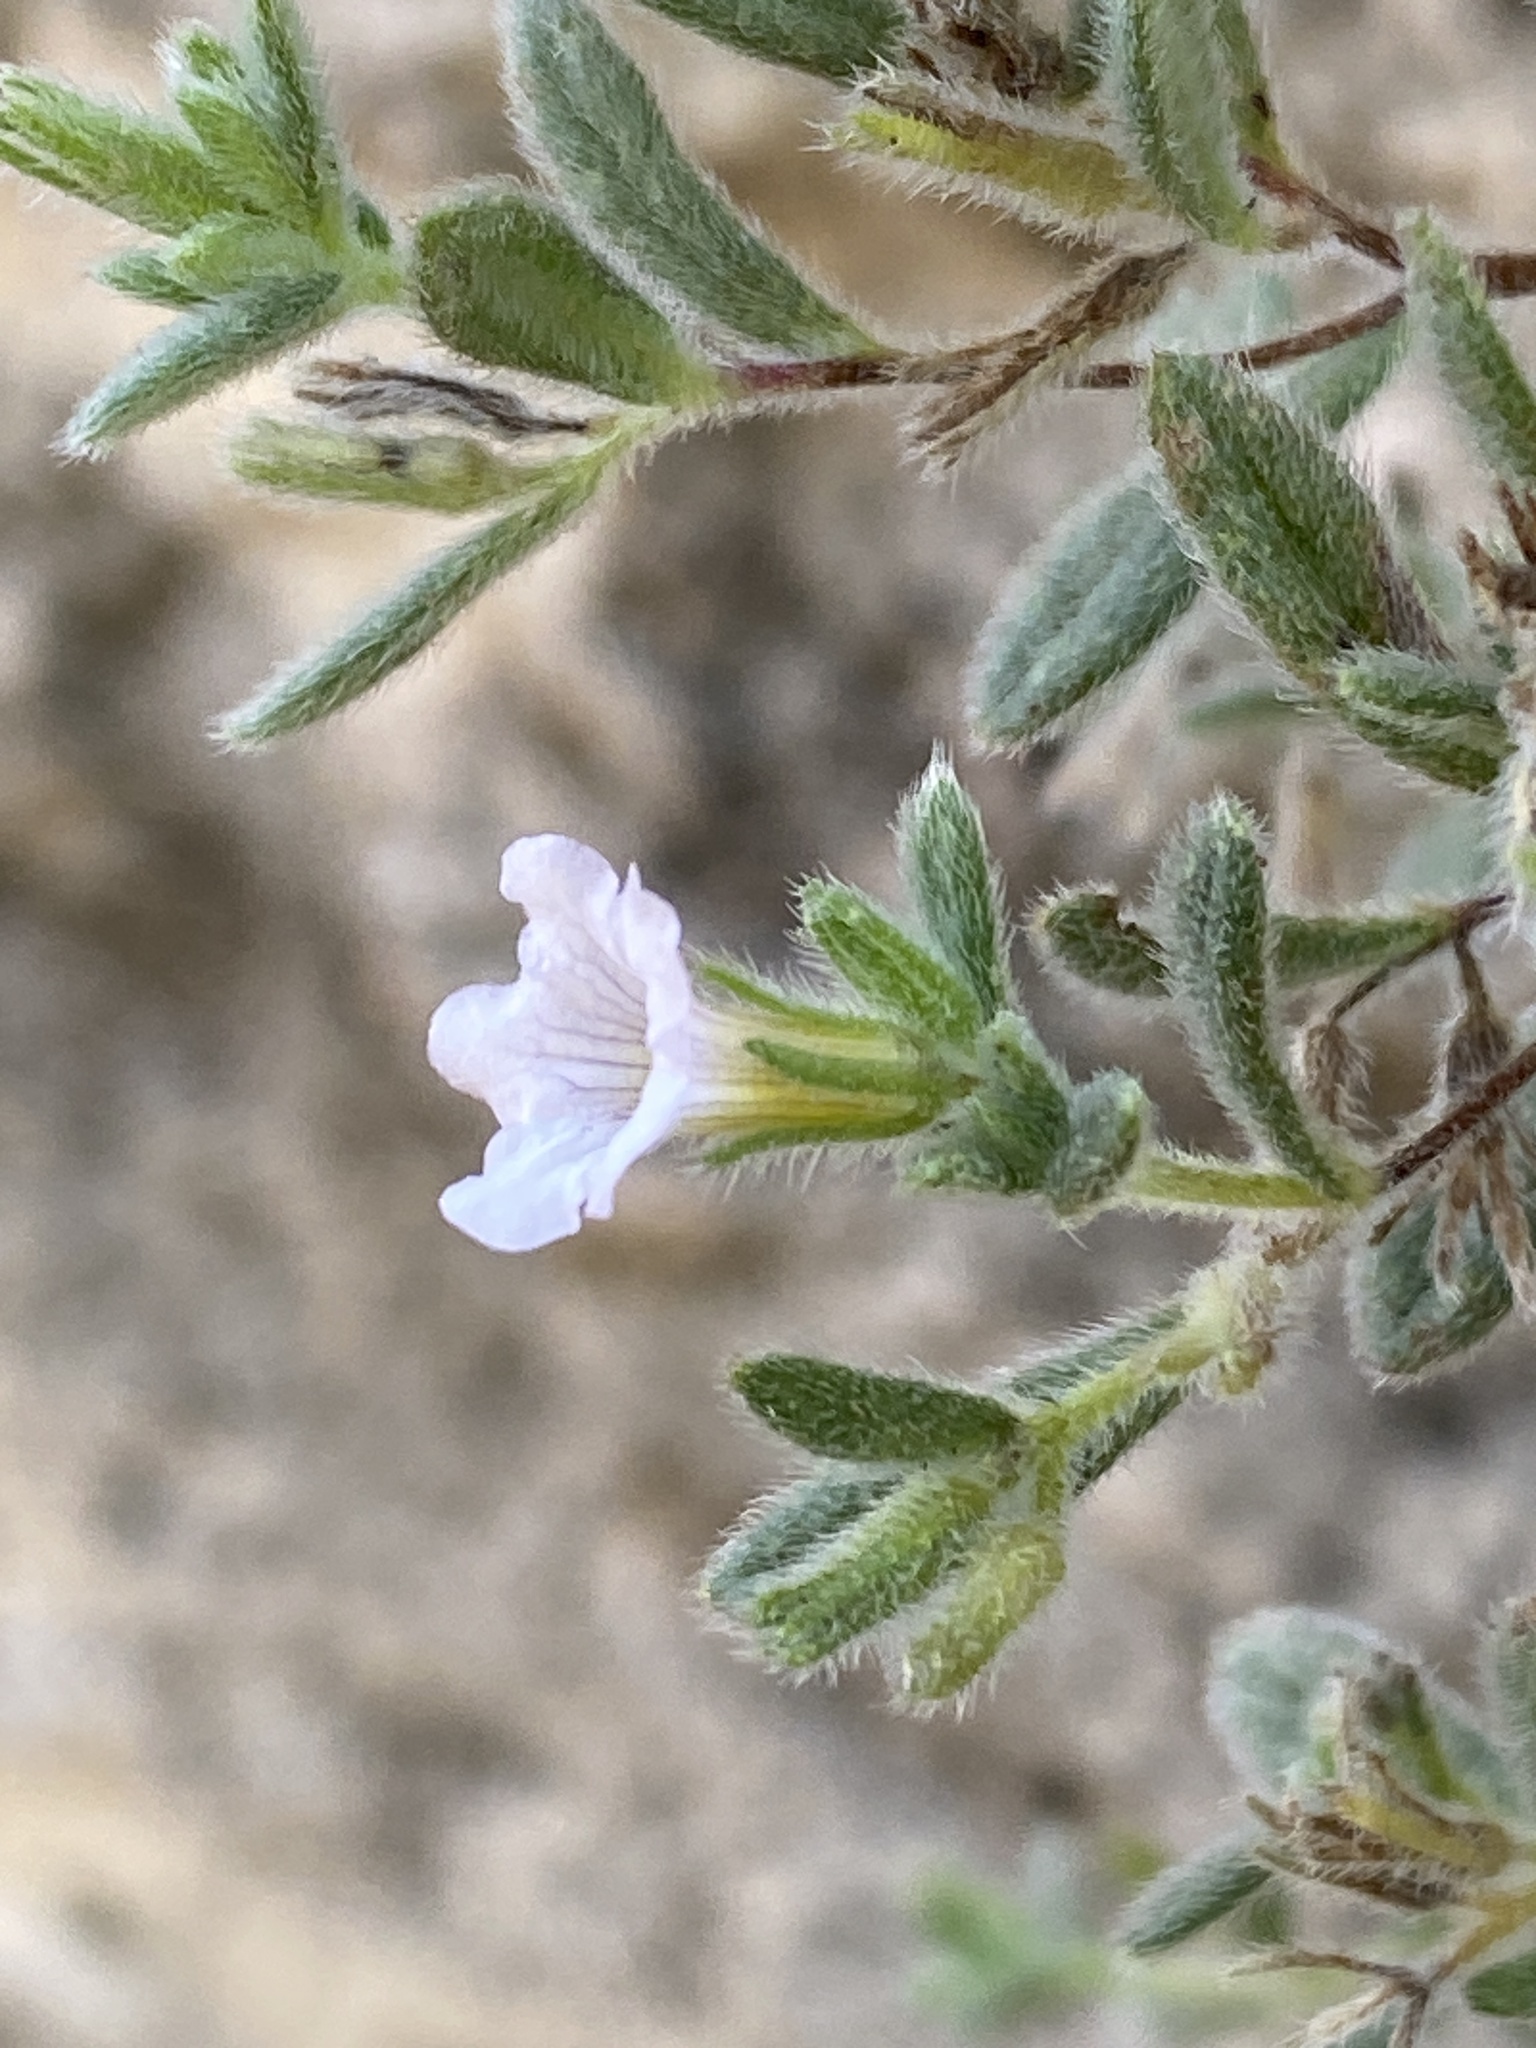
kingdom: Plantae
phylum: Tracheophyta
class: Magnoliopsida
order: Boraginales
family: Namaceae
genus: Nama
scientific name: Nama xylopoda
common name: Yellowseed fiddleleaf
